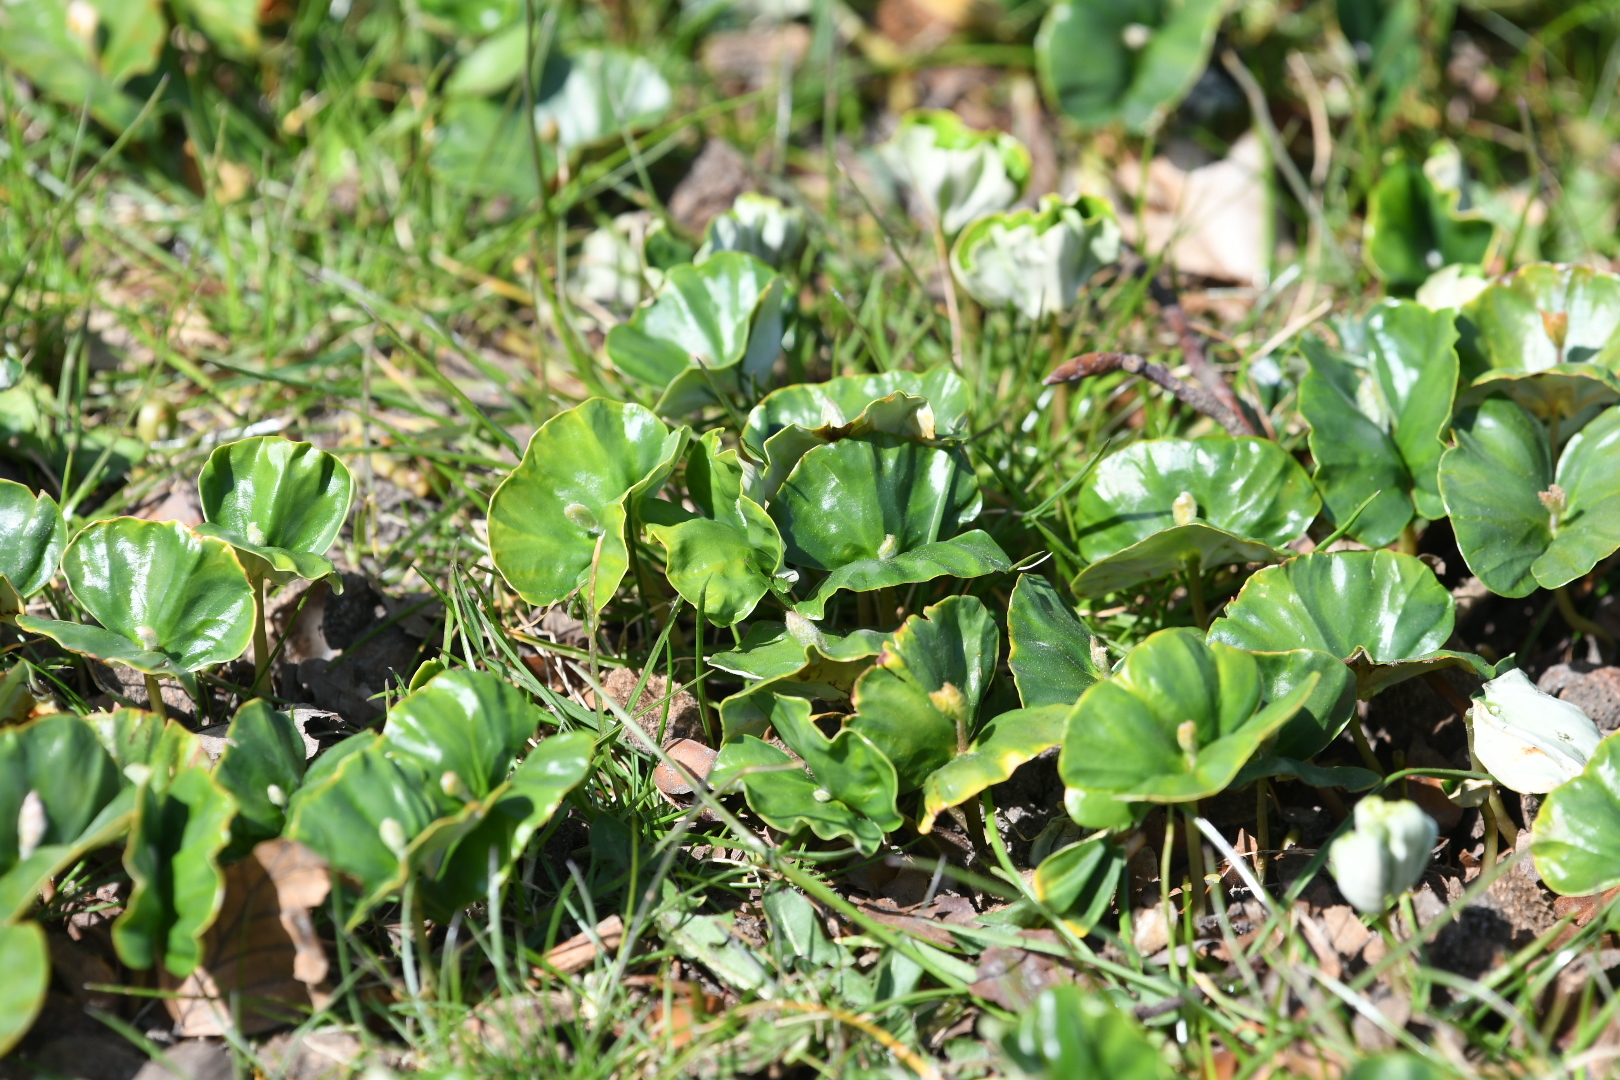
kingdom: Plantae
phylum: Tracheophyta
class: Magnoliopsida
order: Fagales
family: Fagaceae
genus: Fagus
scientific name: Fagus sylvatica
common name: Beech
